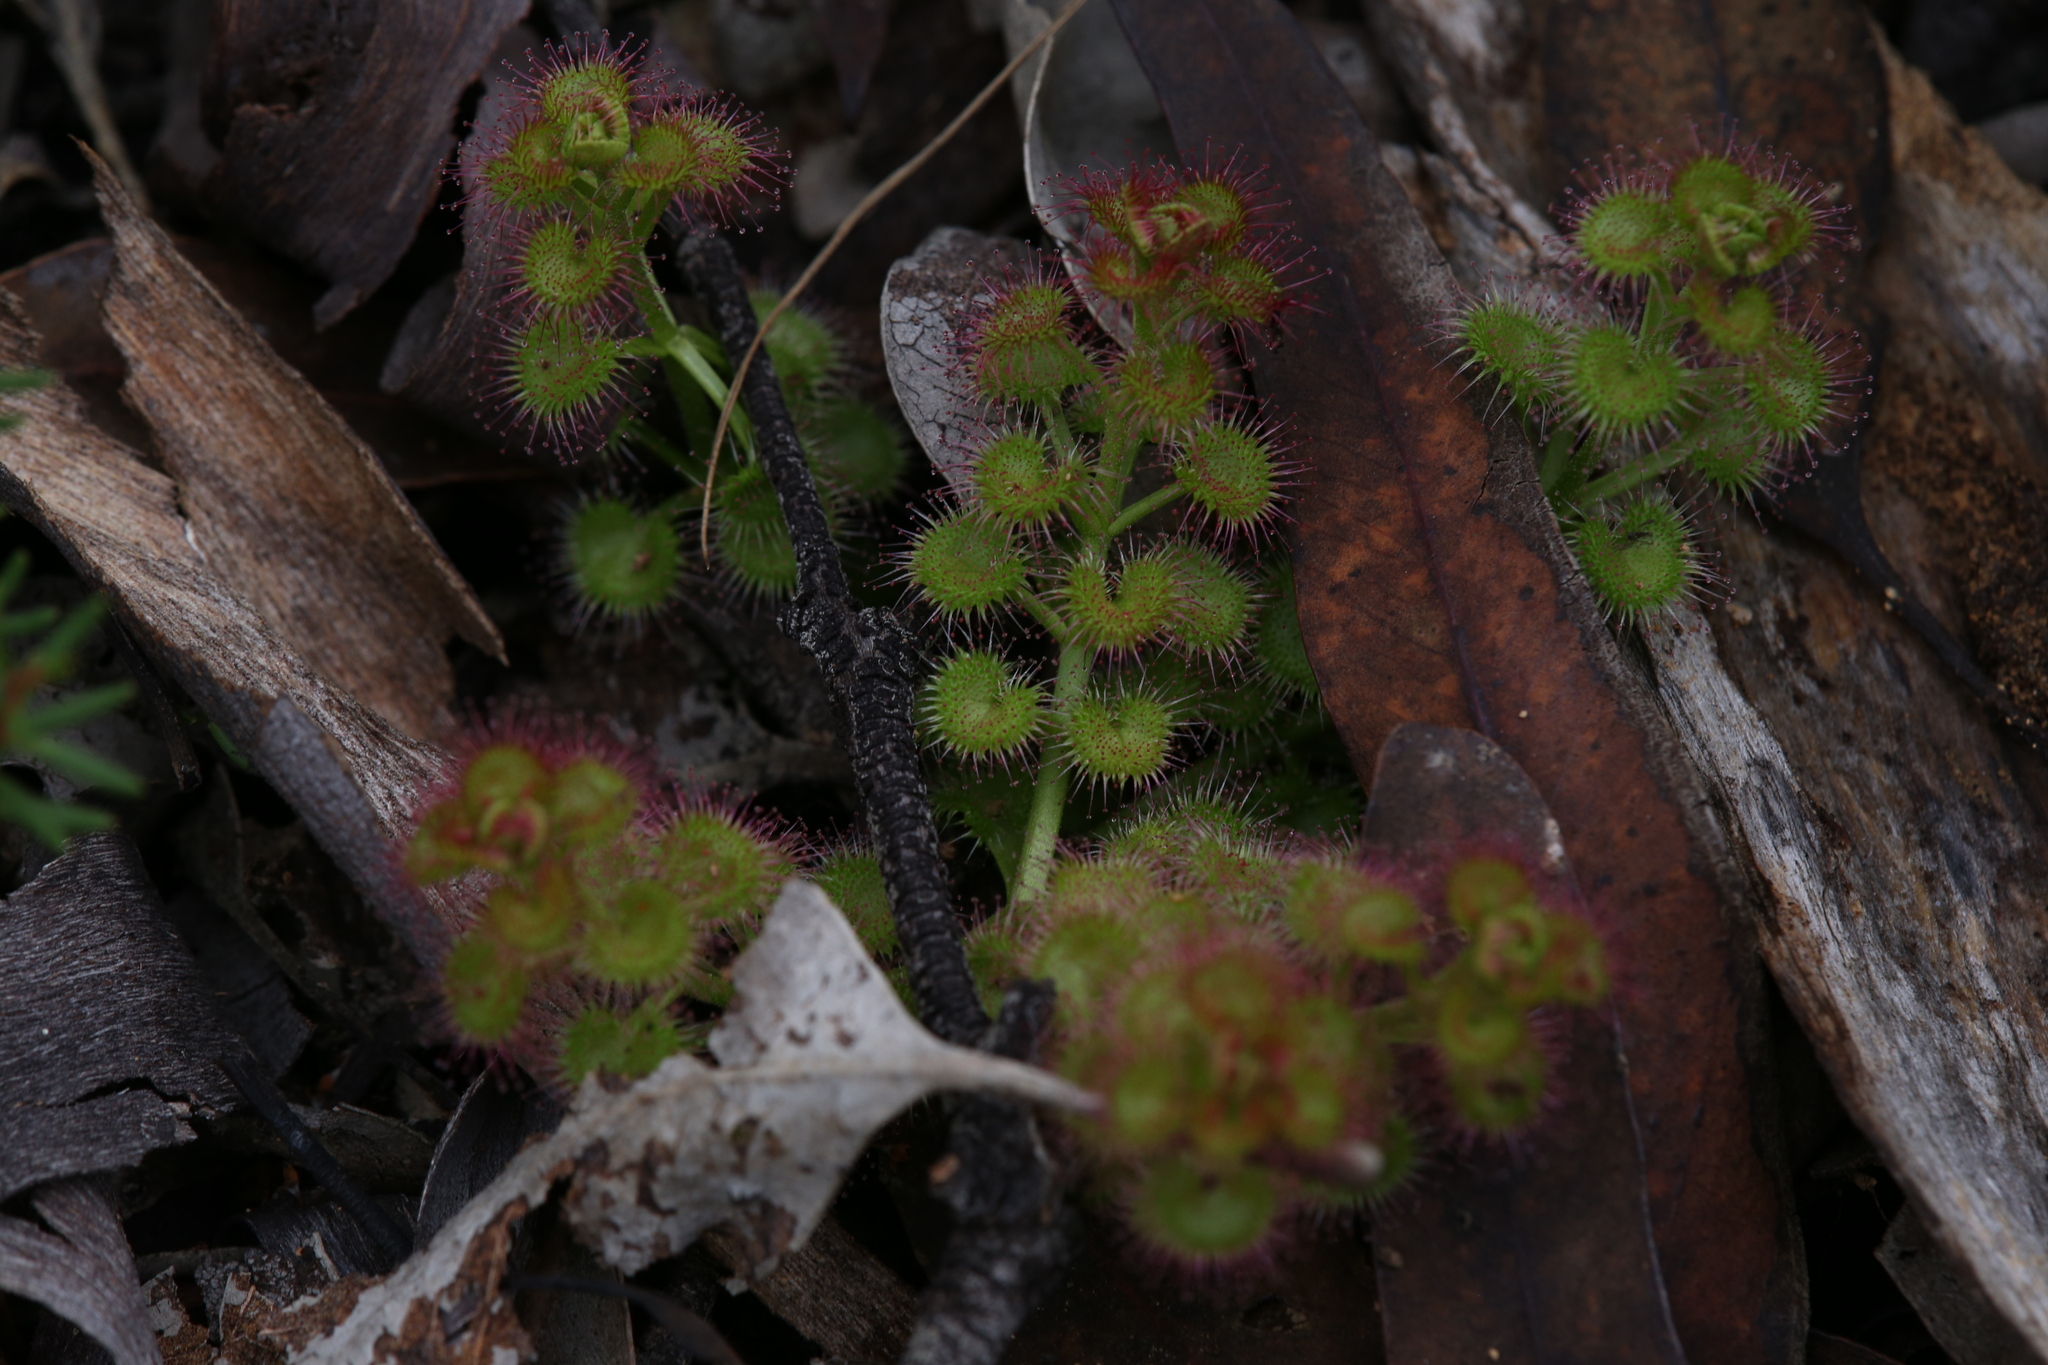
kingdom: Plantae
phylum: Tracheophyta
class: Magnoliopsida
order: Caryophyllales
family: Droseraceae
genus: Drosera
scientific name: Drosera stolonifera
